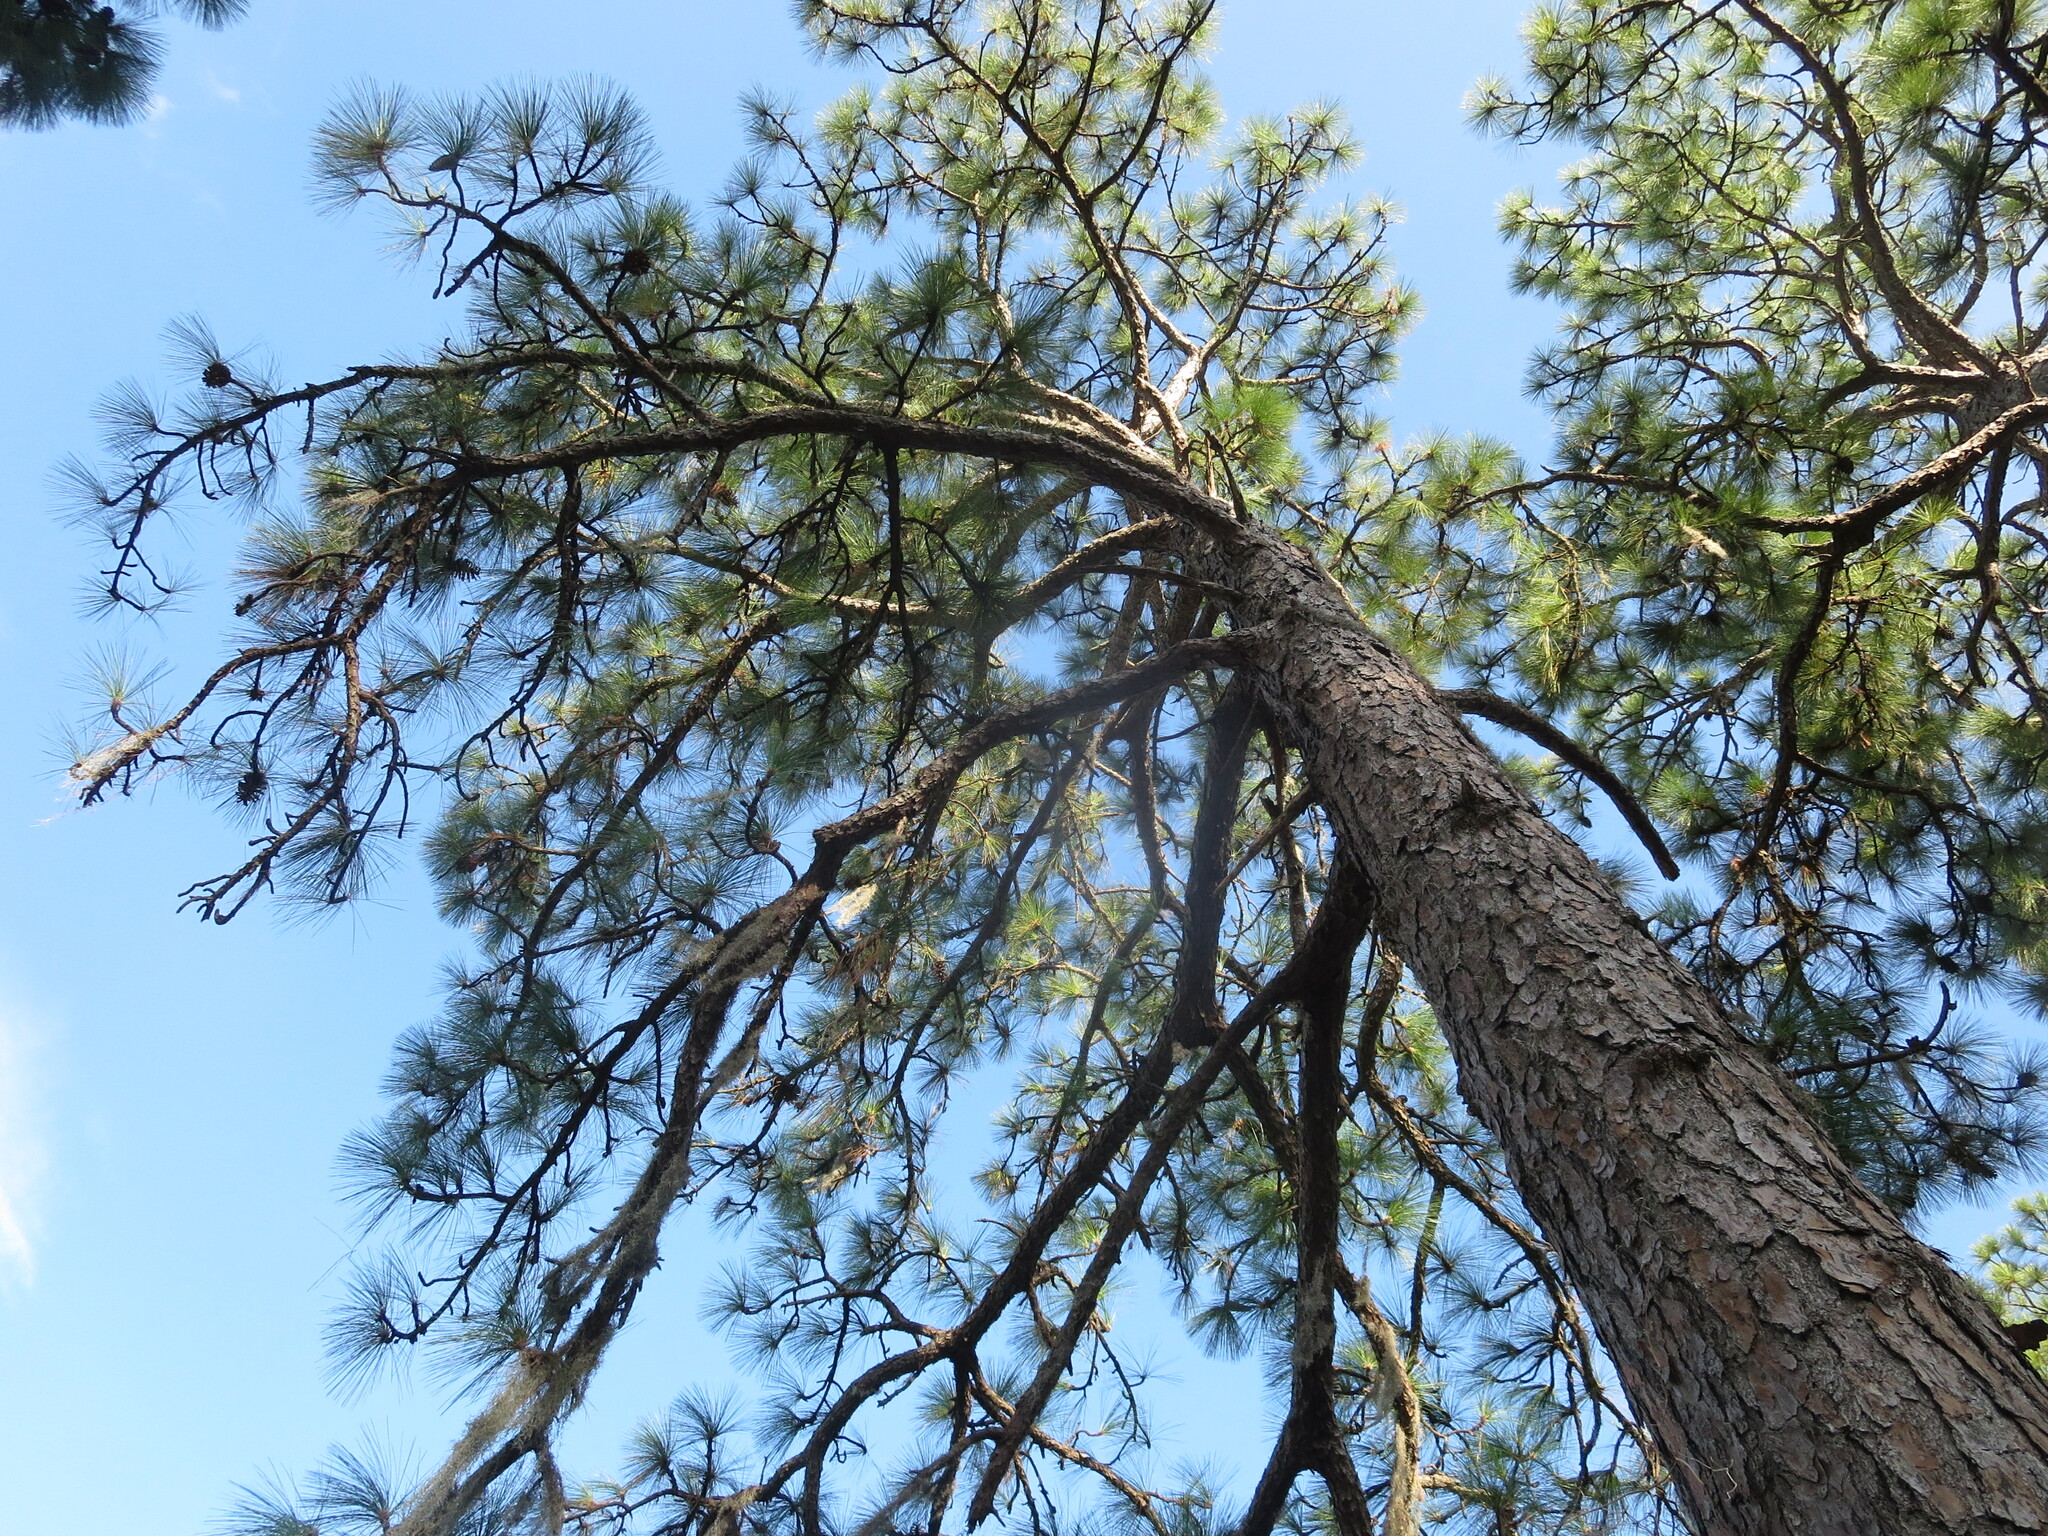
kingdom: Plantae
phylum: Tracheophyta
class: Pinopsida
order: Pinales
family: Pinaceae
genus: Pinus
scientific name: Pinus palustris
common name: Longleaf pine
